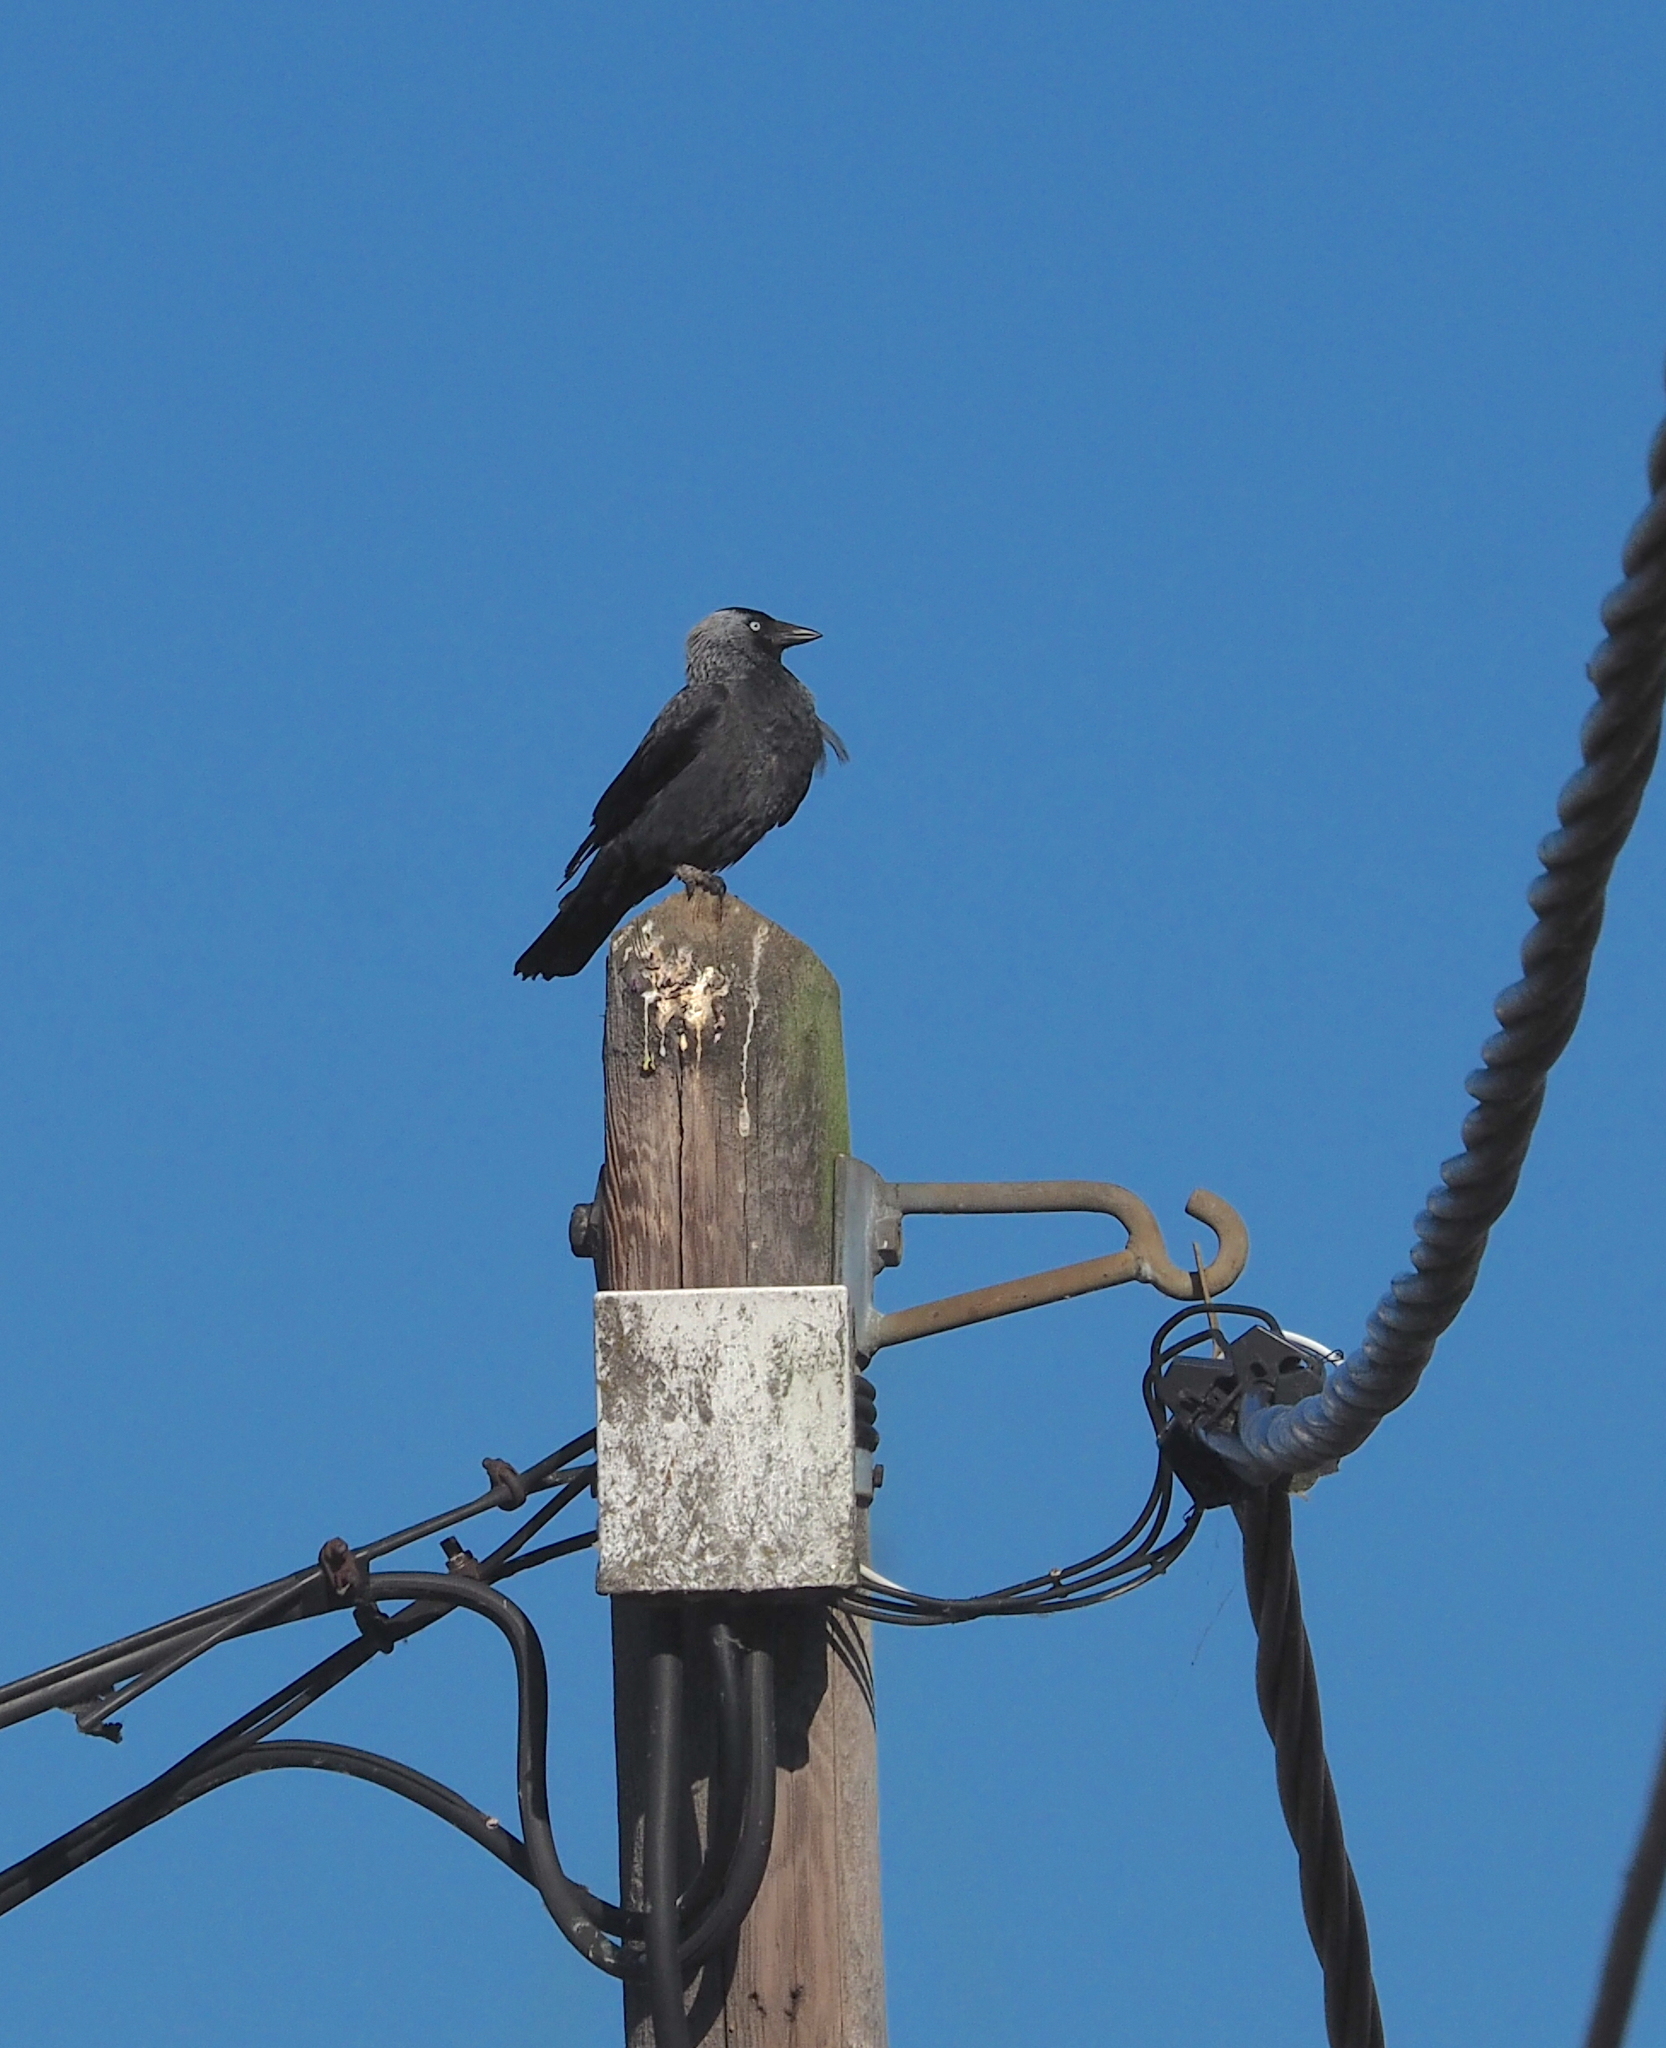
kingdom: Animalia
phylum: Chordata
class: Aves
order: Passeriformes
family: Corvidae
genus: Coloeus
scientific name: Coloeus monedula
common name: Western jackdaw
